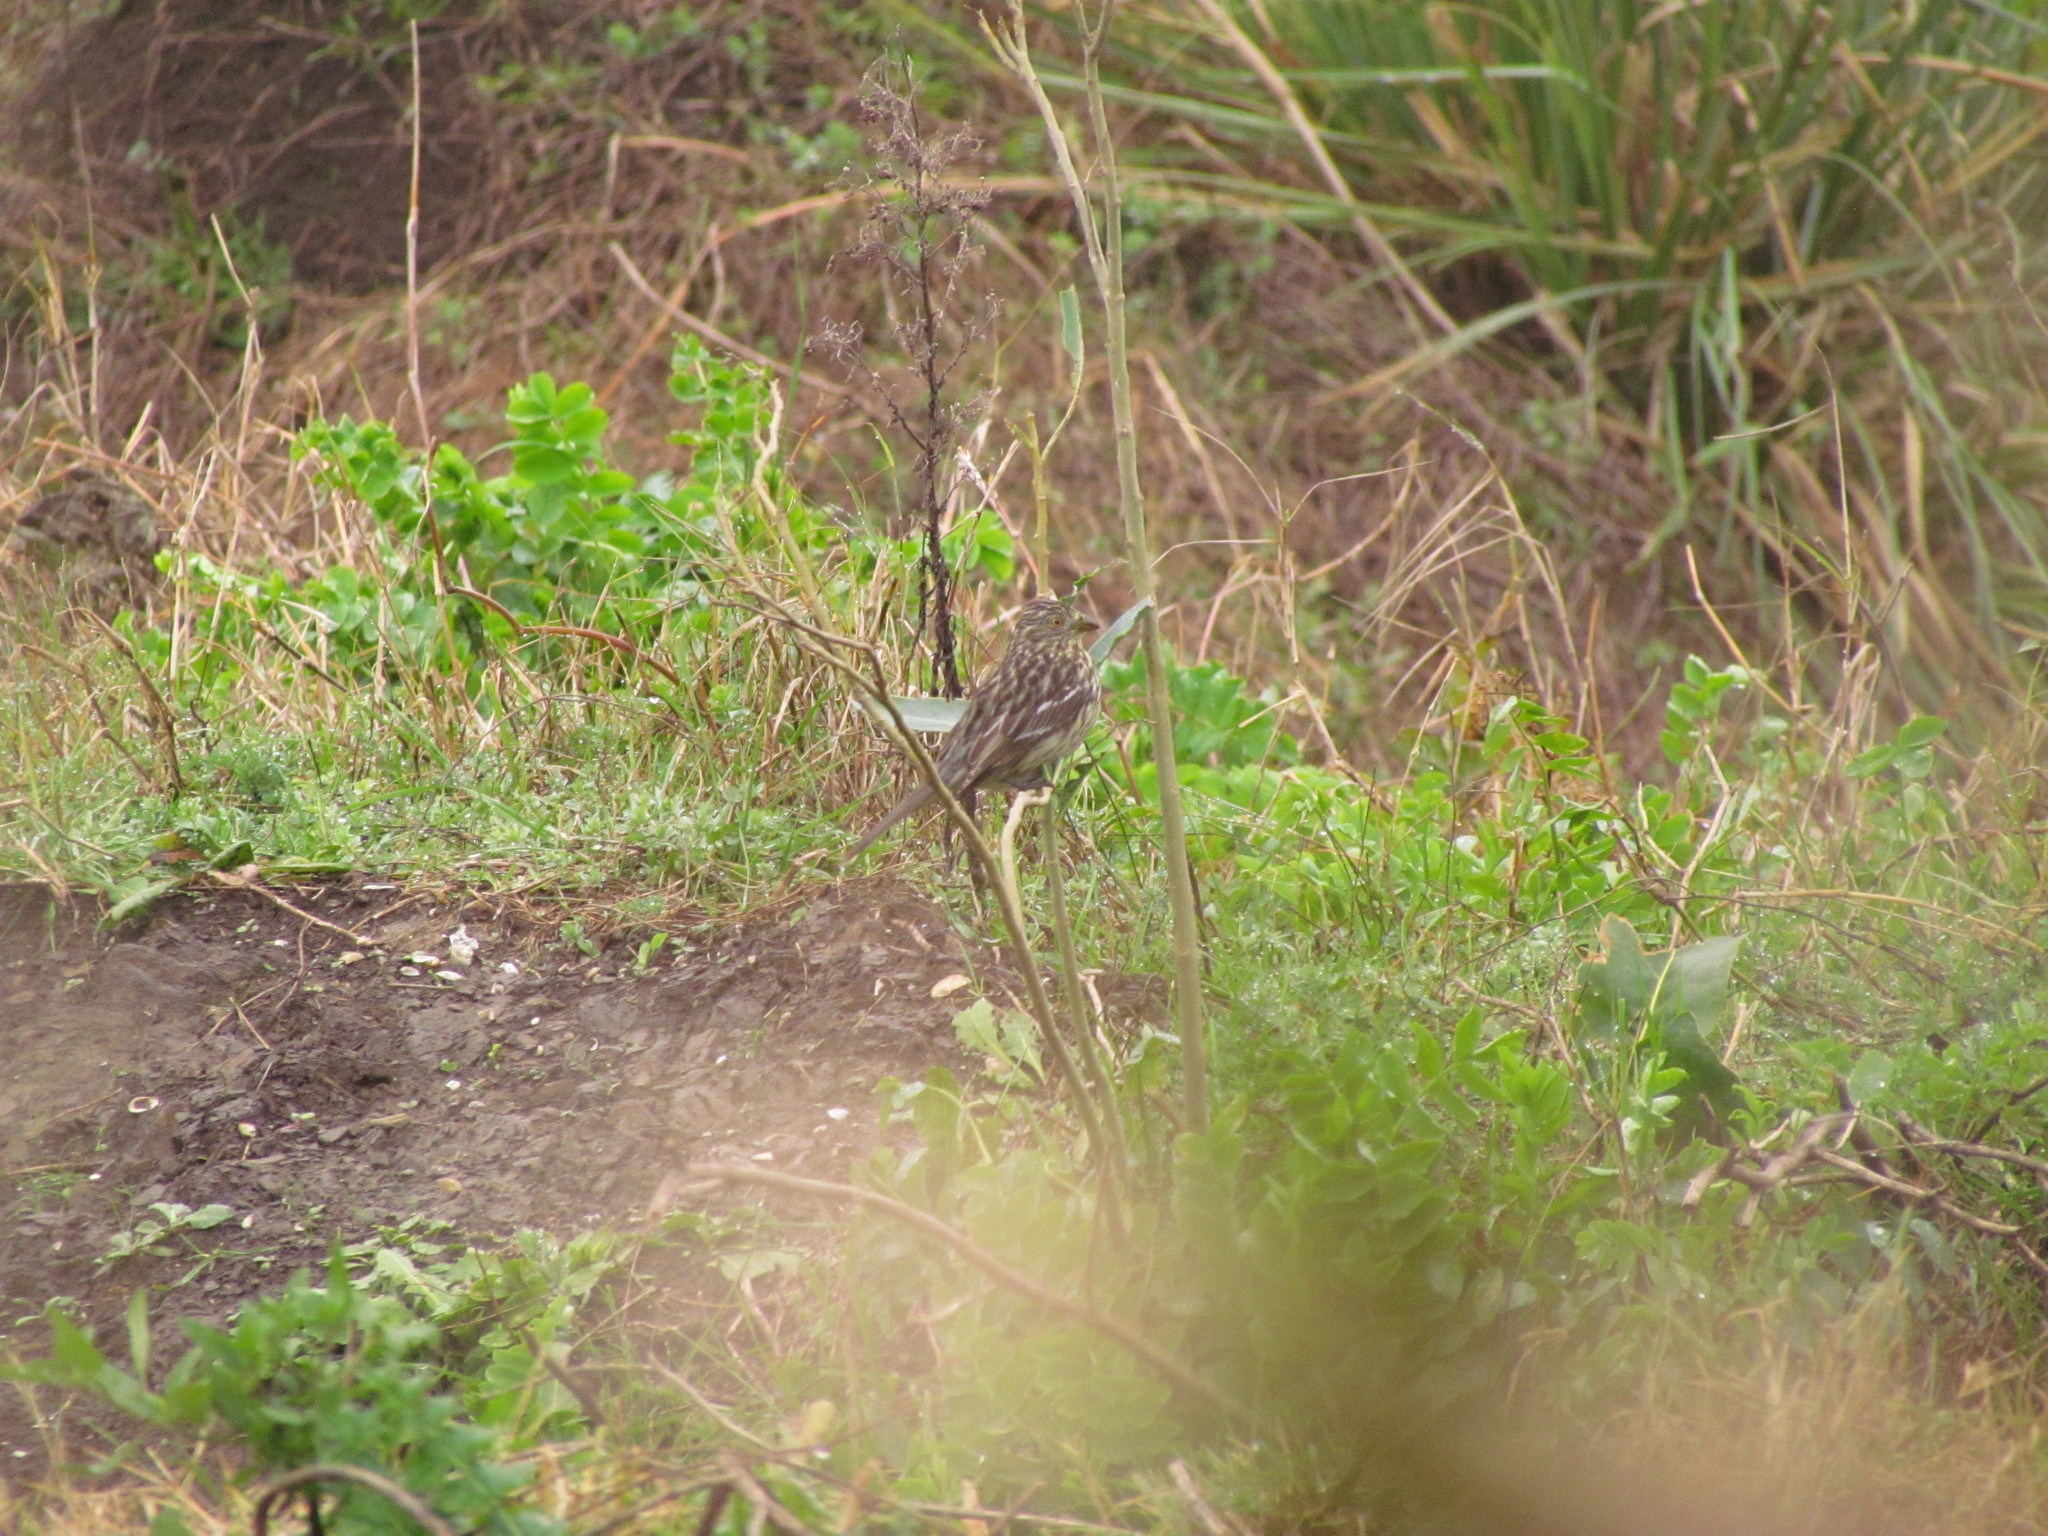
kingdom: Animalia
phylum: Chordata
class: Aves
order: Passeriformes
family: Cotingidae
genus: Phytotoma
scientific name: Phytotoma rutila
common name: White-tipped plantcutter
